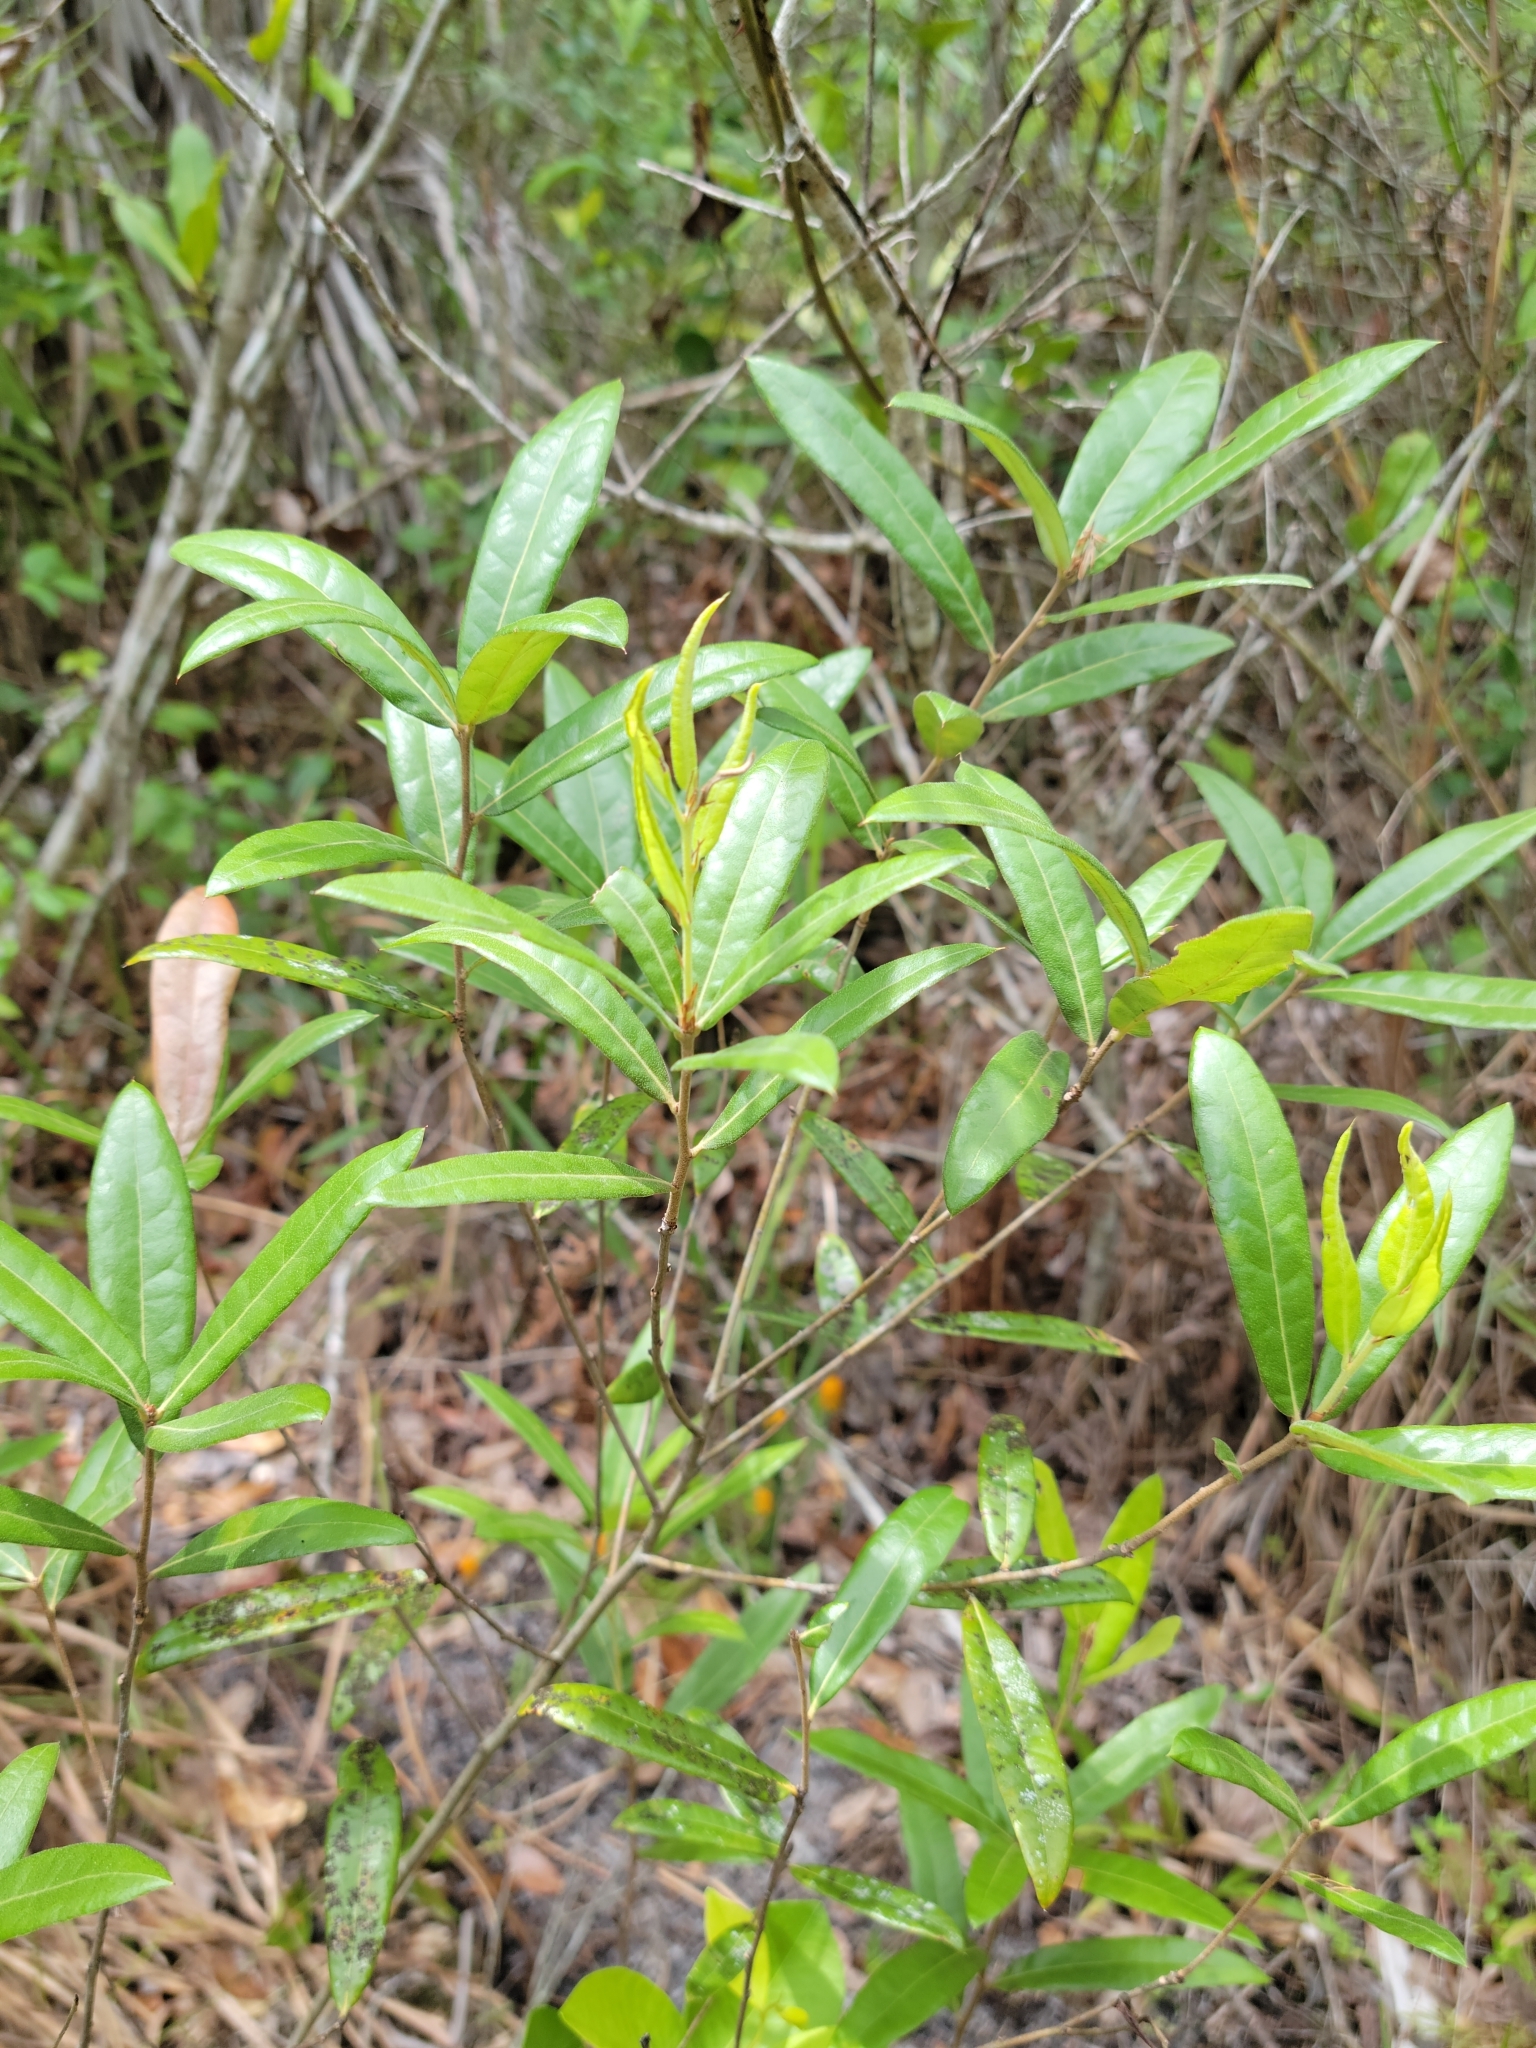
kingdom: Plantae
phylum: Tracheophyta
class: Magnoliopsida
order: Fagales
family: Fagaceae
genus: Quercus
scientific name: Quercus pumila
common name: Runner oak
